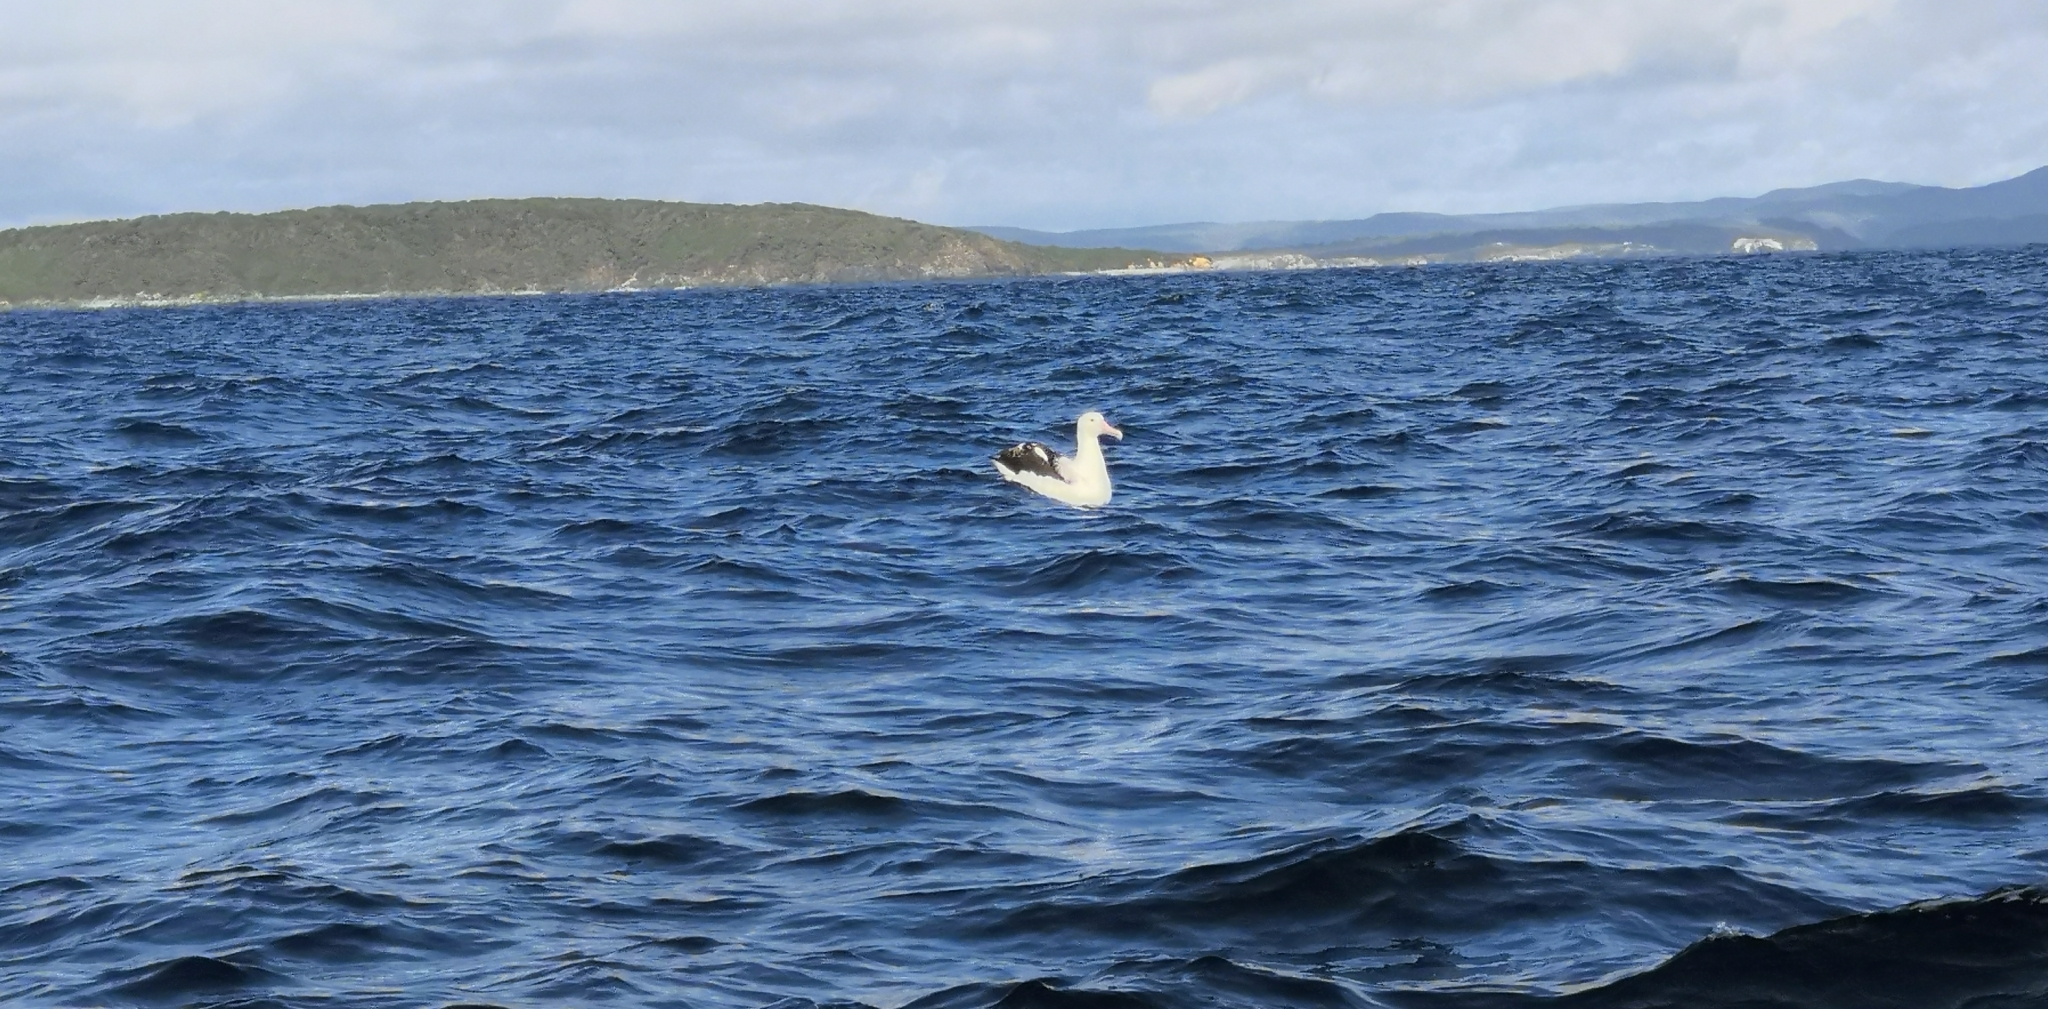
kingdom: Animalia
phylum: Chordata
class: Aves
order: Procellariiformes
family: Diomedeidae
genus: Diomedea
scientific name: Diomedea epomophora
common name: Southern royal albatross
